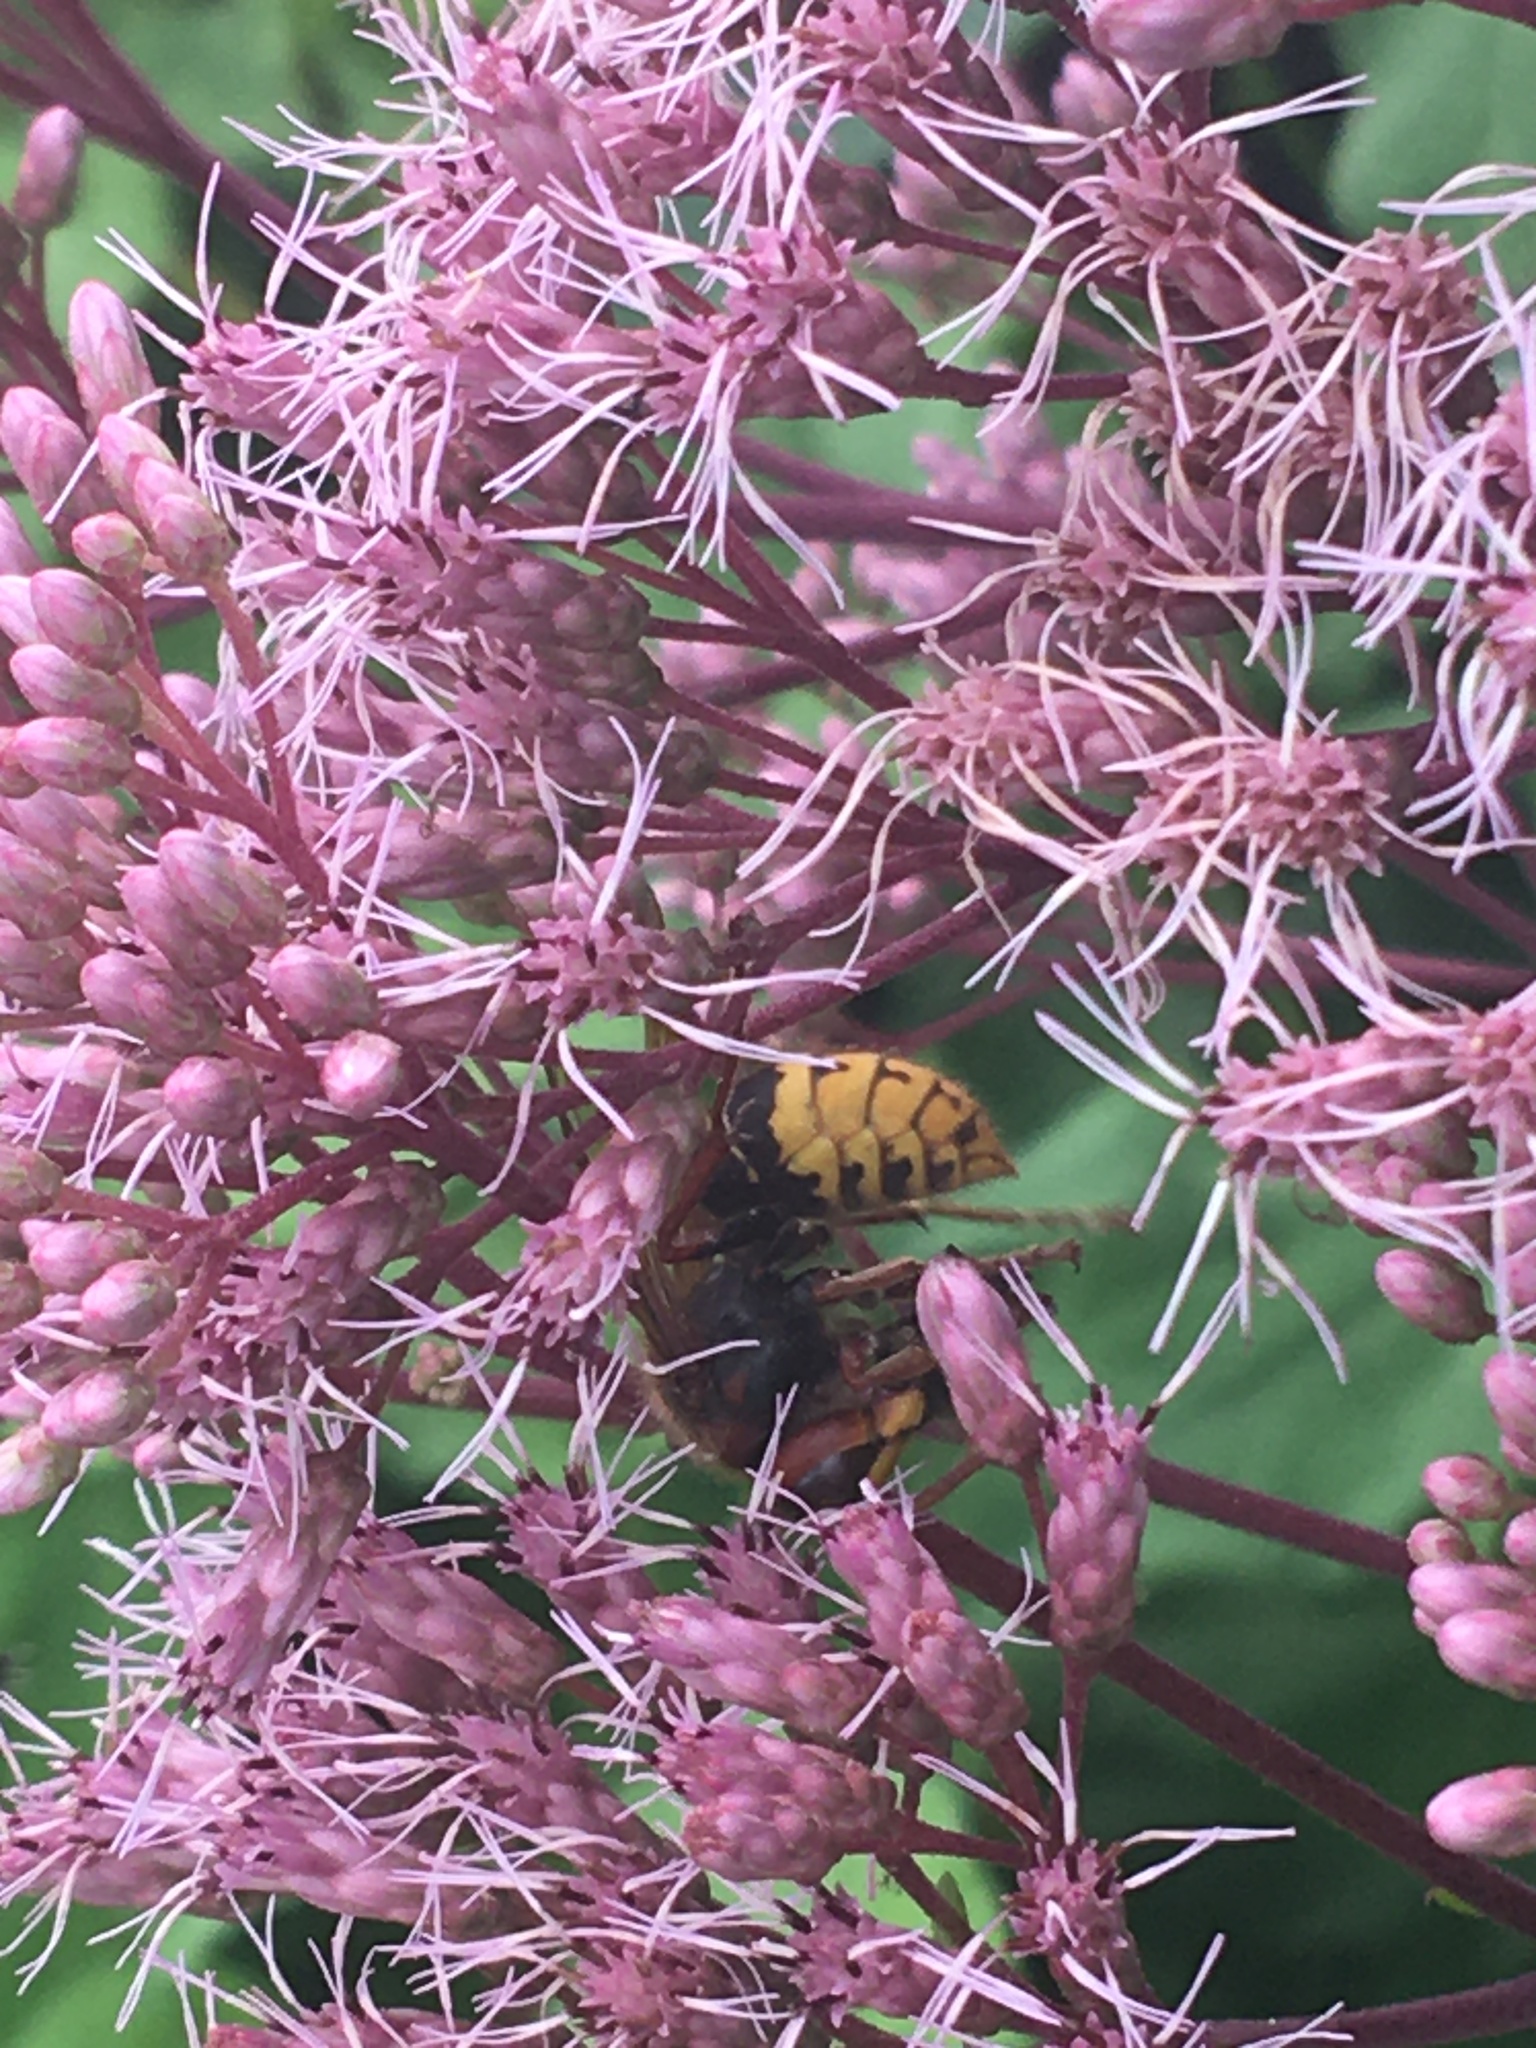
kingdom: Animalia
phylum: Arthropoda
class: Insecta
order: Hymenoptera
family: Vespidae
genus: Vespa
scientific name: Vespa crabro
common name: Hornet
